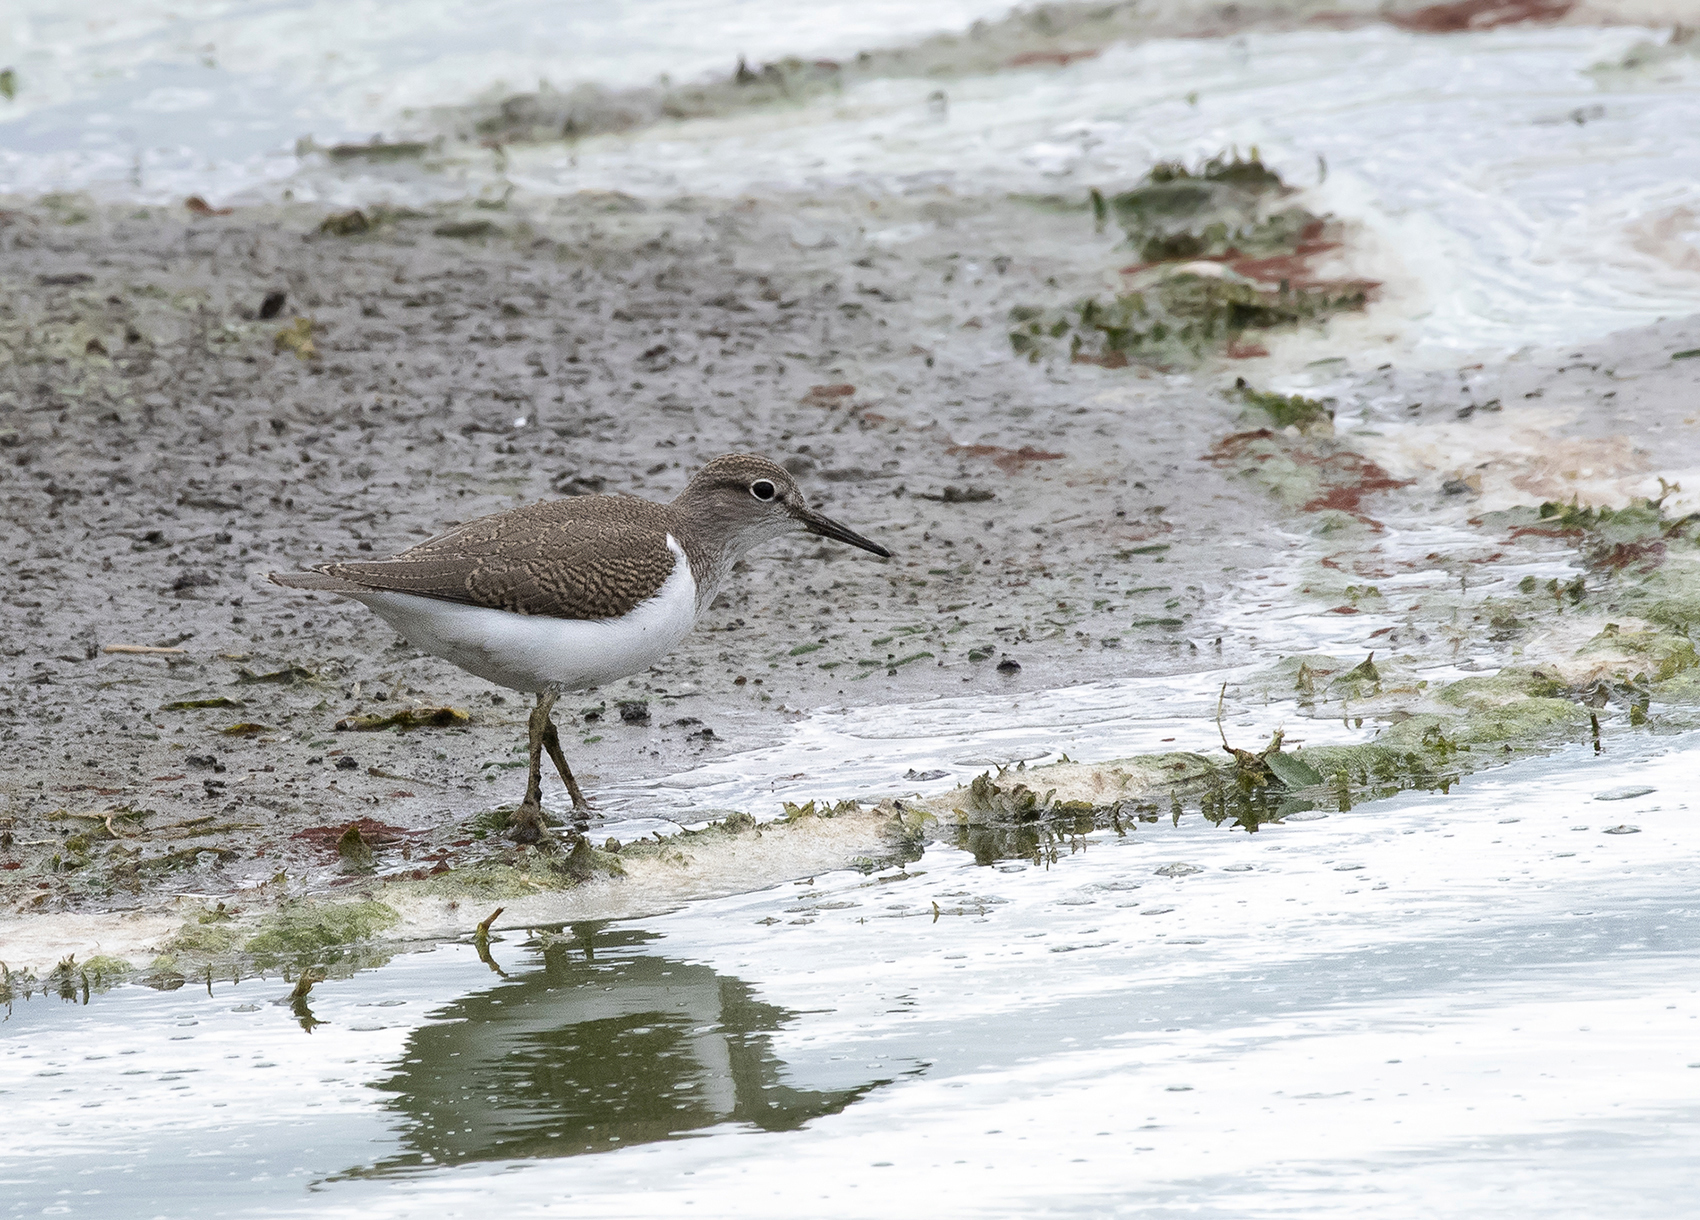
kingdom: Animalia
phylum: Chordata
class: Aves
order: Charadriiformes
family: Scolopacidae
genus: Actitis
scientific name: Actitis hypoleucos
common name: Common sandpiper
